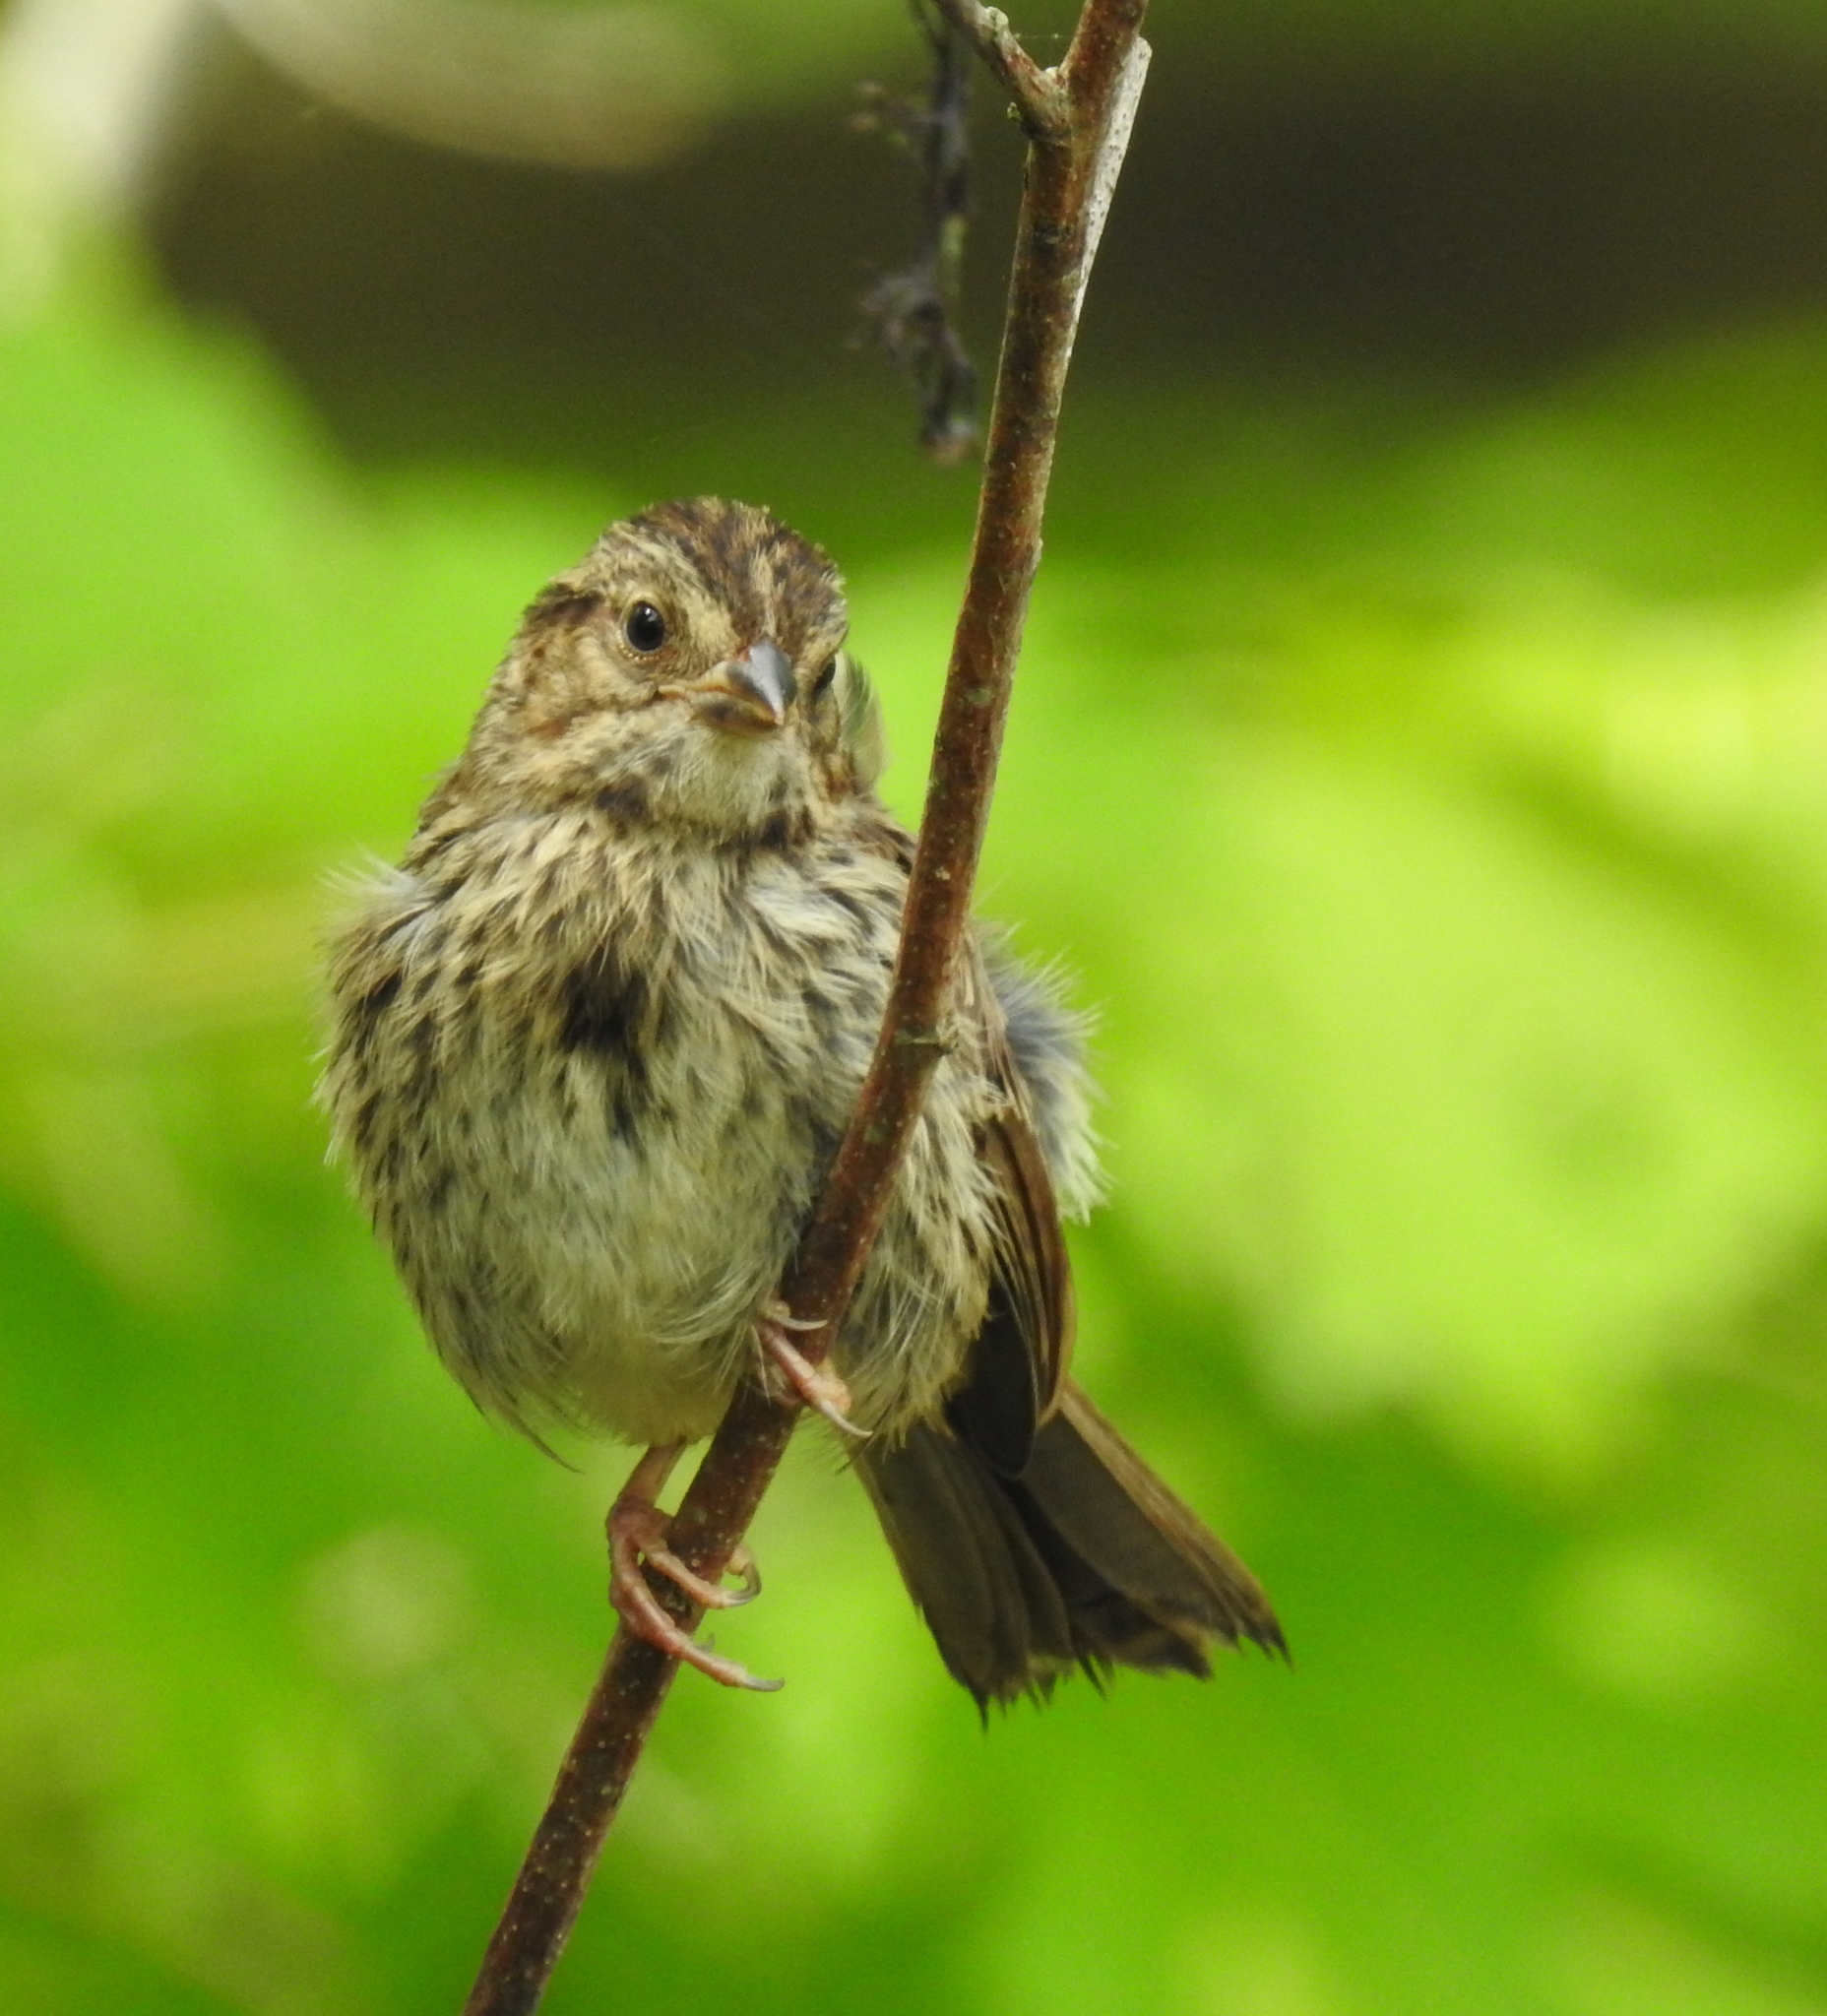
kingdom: Animalia
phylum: Chordata
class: Aves
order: Passeriformes
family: Passerellidae
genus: Melospiza
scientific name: Melospiza melodia
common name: Song sparrow
